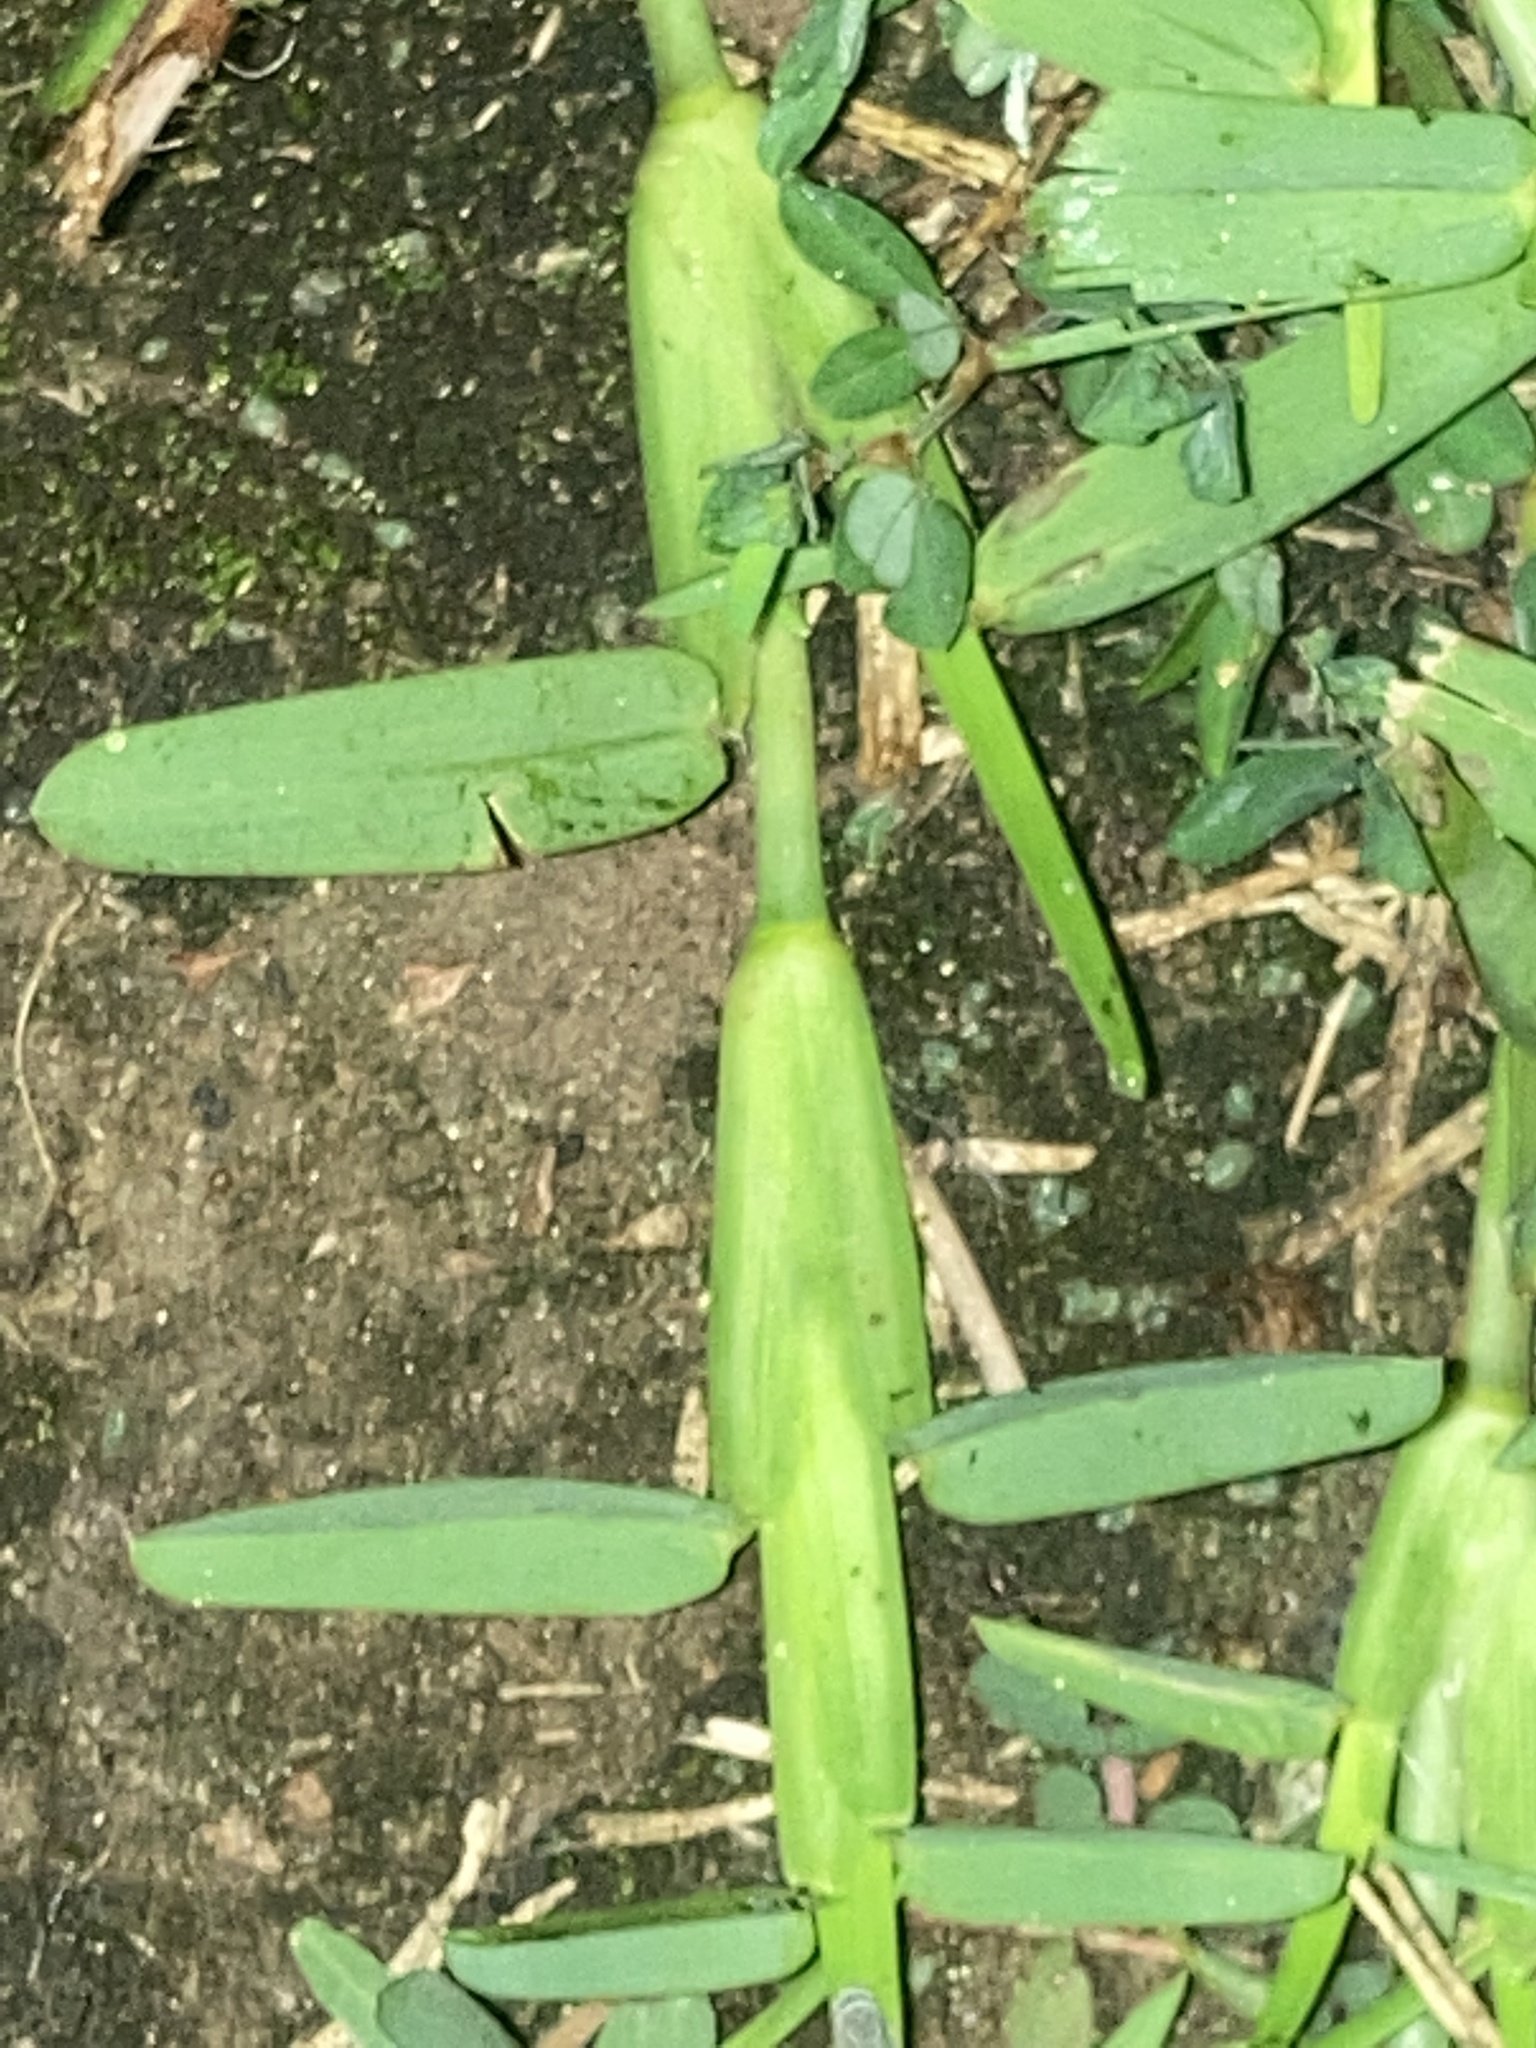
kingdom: Plantae
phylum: Tracheophyta
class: Liliopsida
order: Poales
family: Poaceae
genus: Stenotaphrum
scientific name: Stenotaphrum secundatum
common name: St. augustine grass
